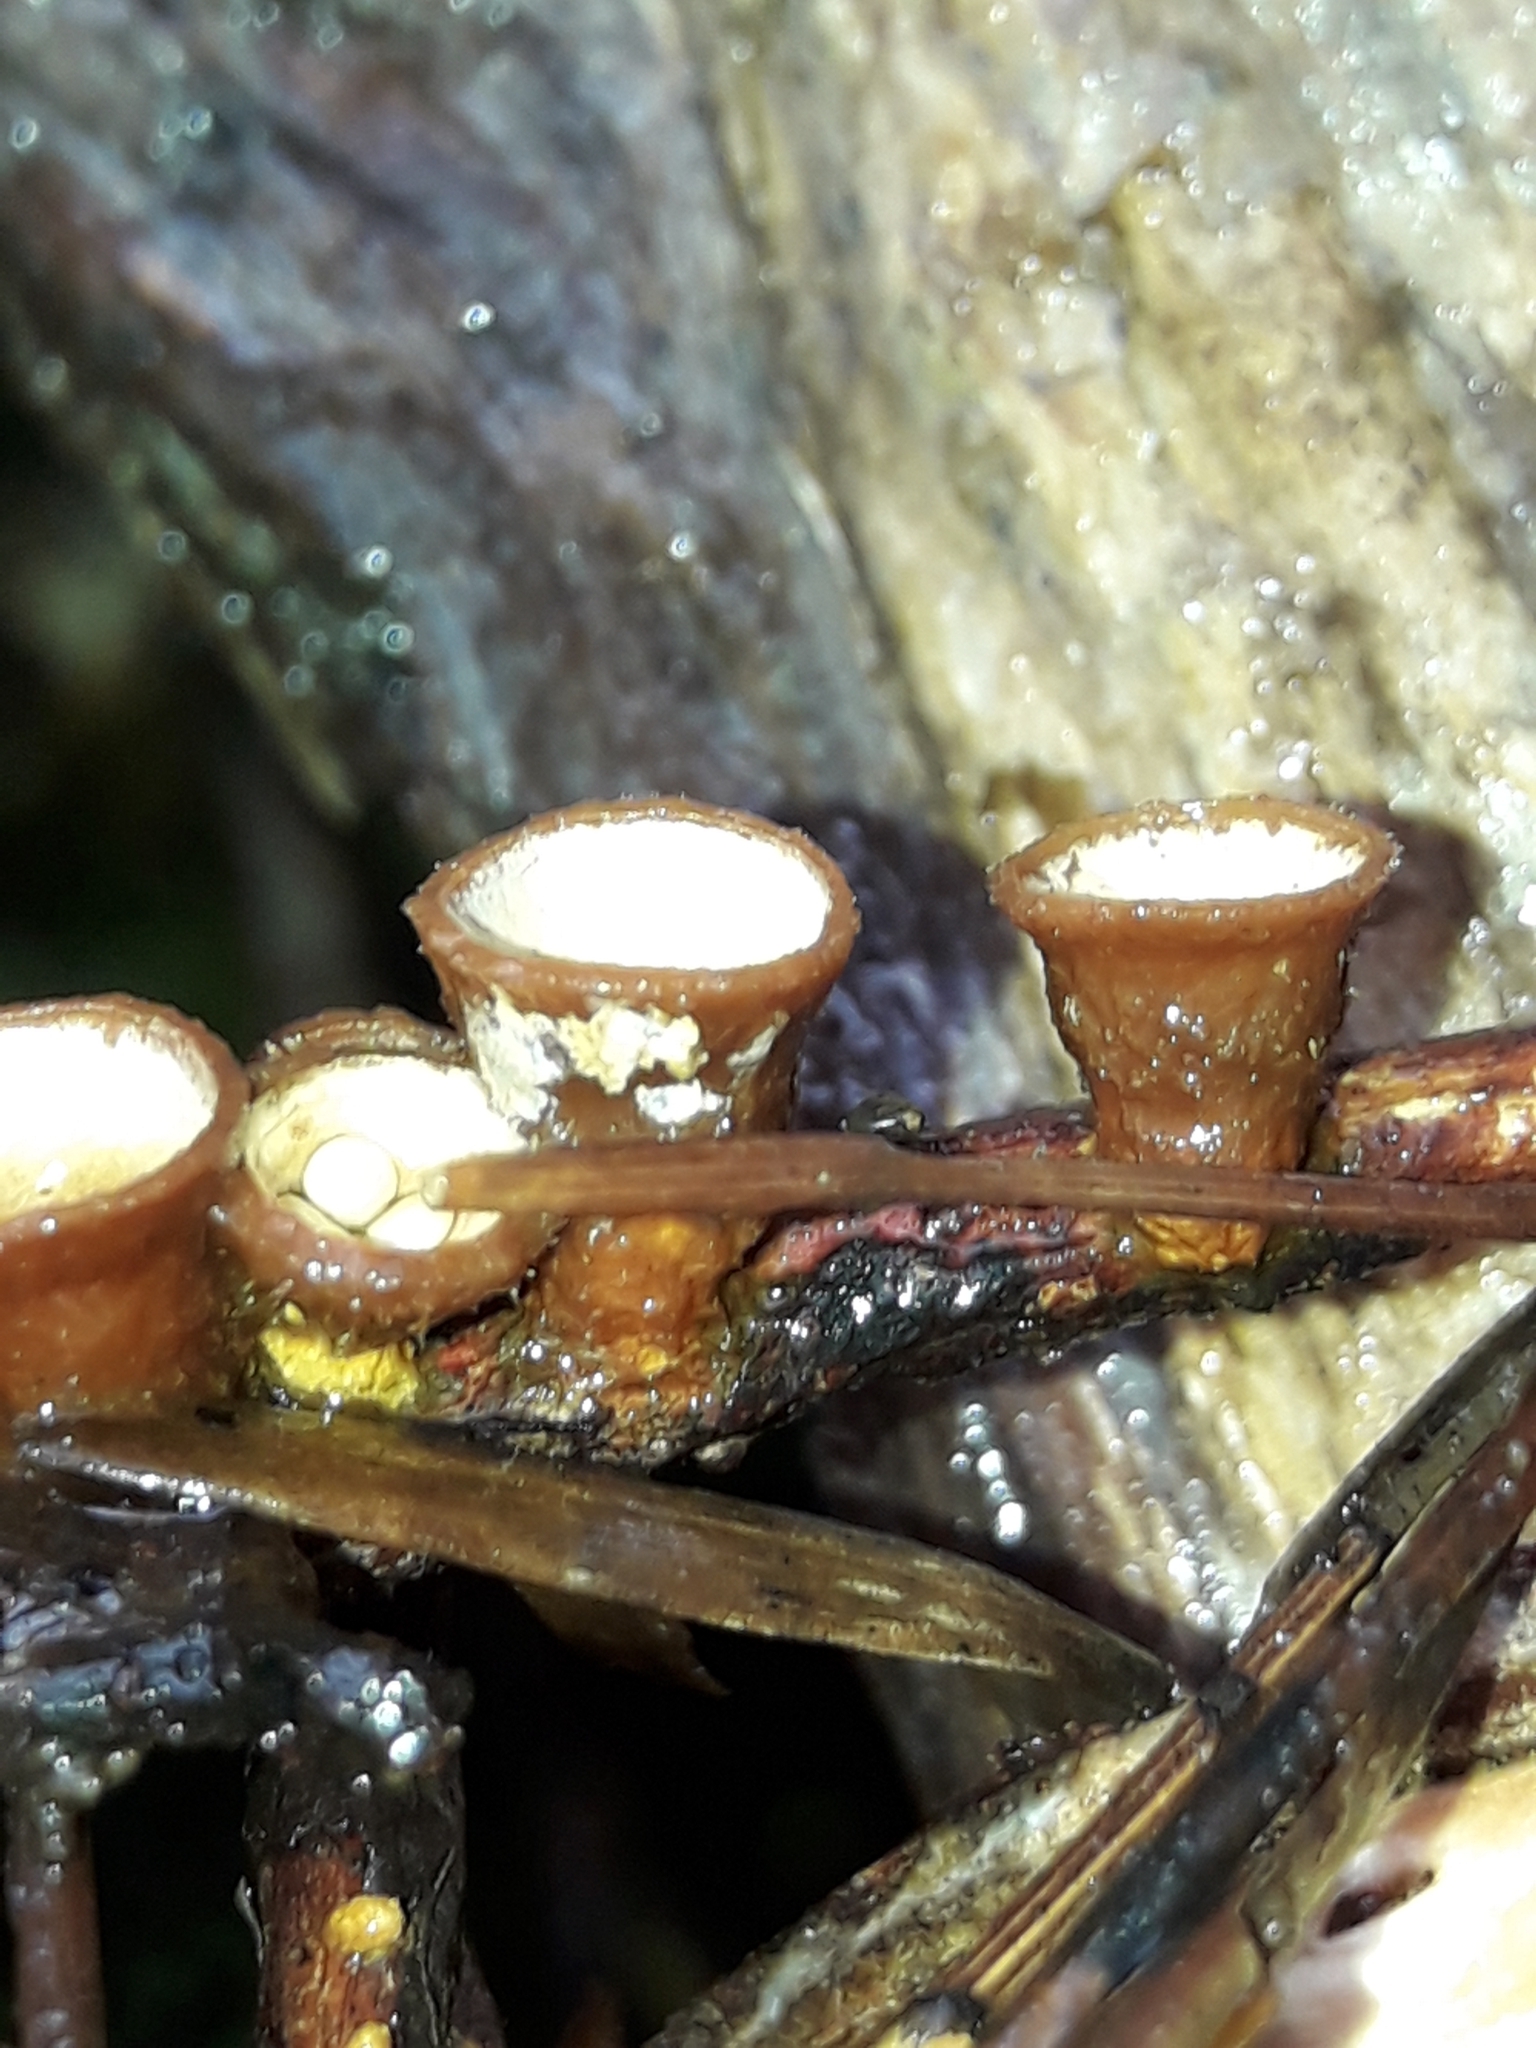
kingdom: Fungi
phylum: Basidiomycota
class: Agaricomycetes
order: Agaricales
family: Nidulariaceae
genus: Crucibulum
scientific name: Crucibulum simile
